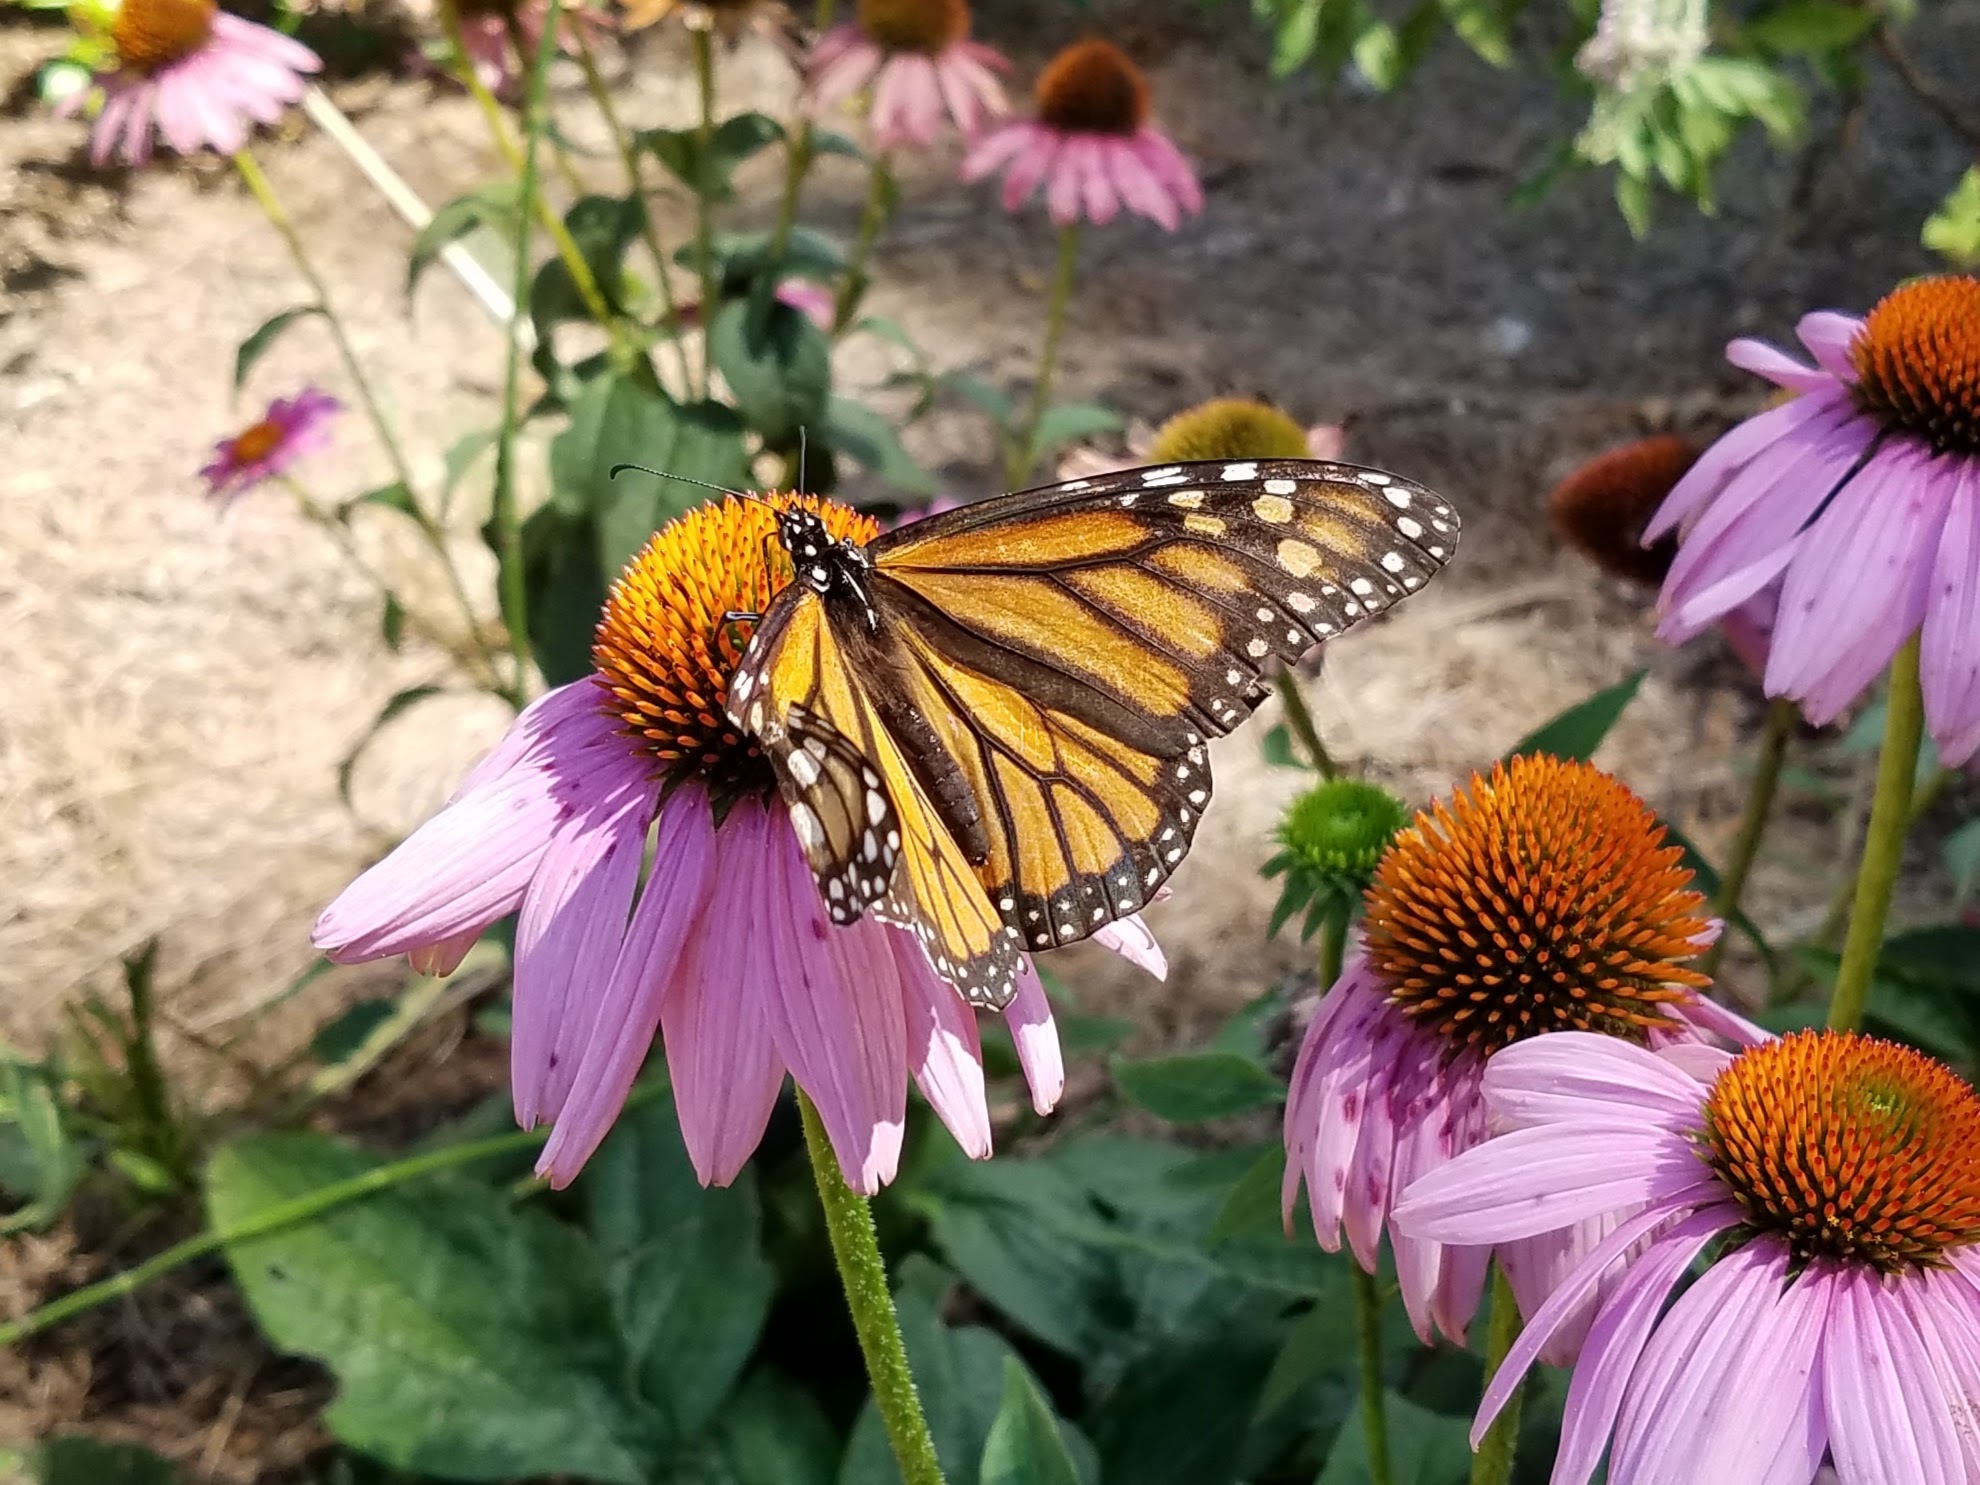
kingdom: Animalia
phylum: Arthropoda
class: Insecta
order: Lepidoptera
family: Nymphalidae
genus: Danaus
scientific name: Danaus plexippus
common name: Monarch
